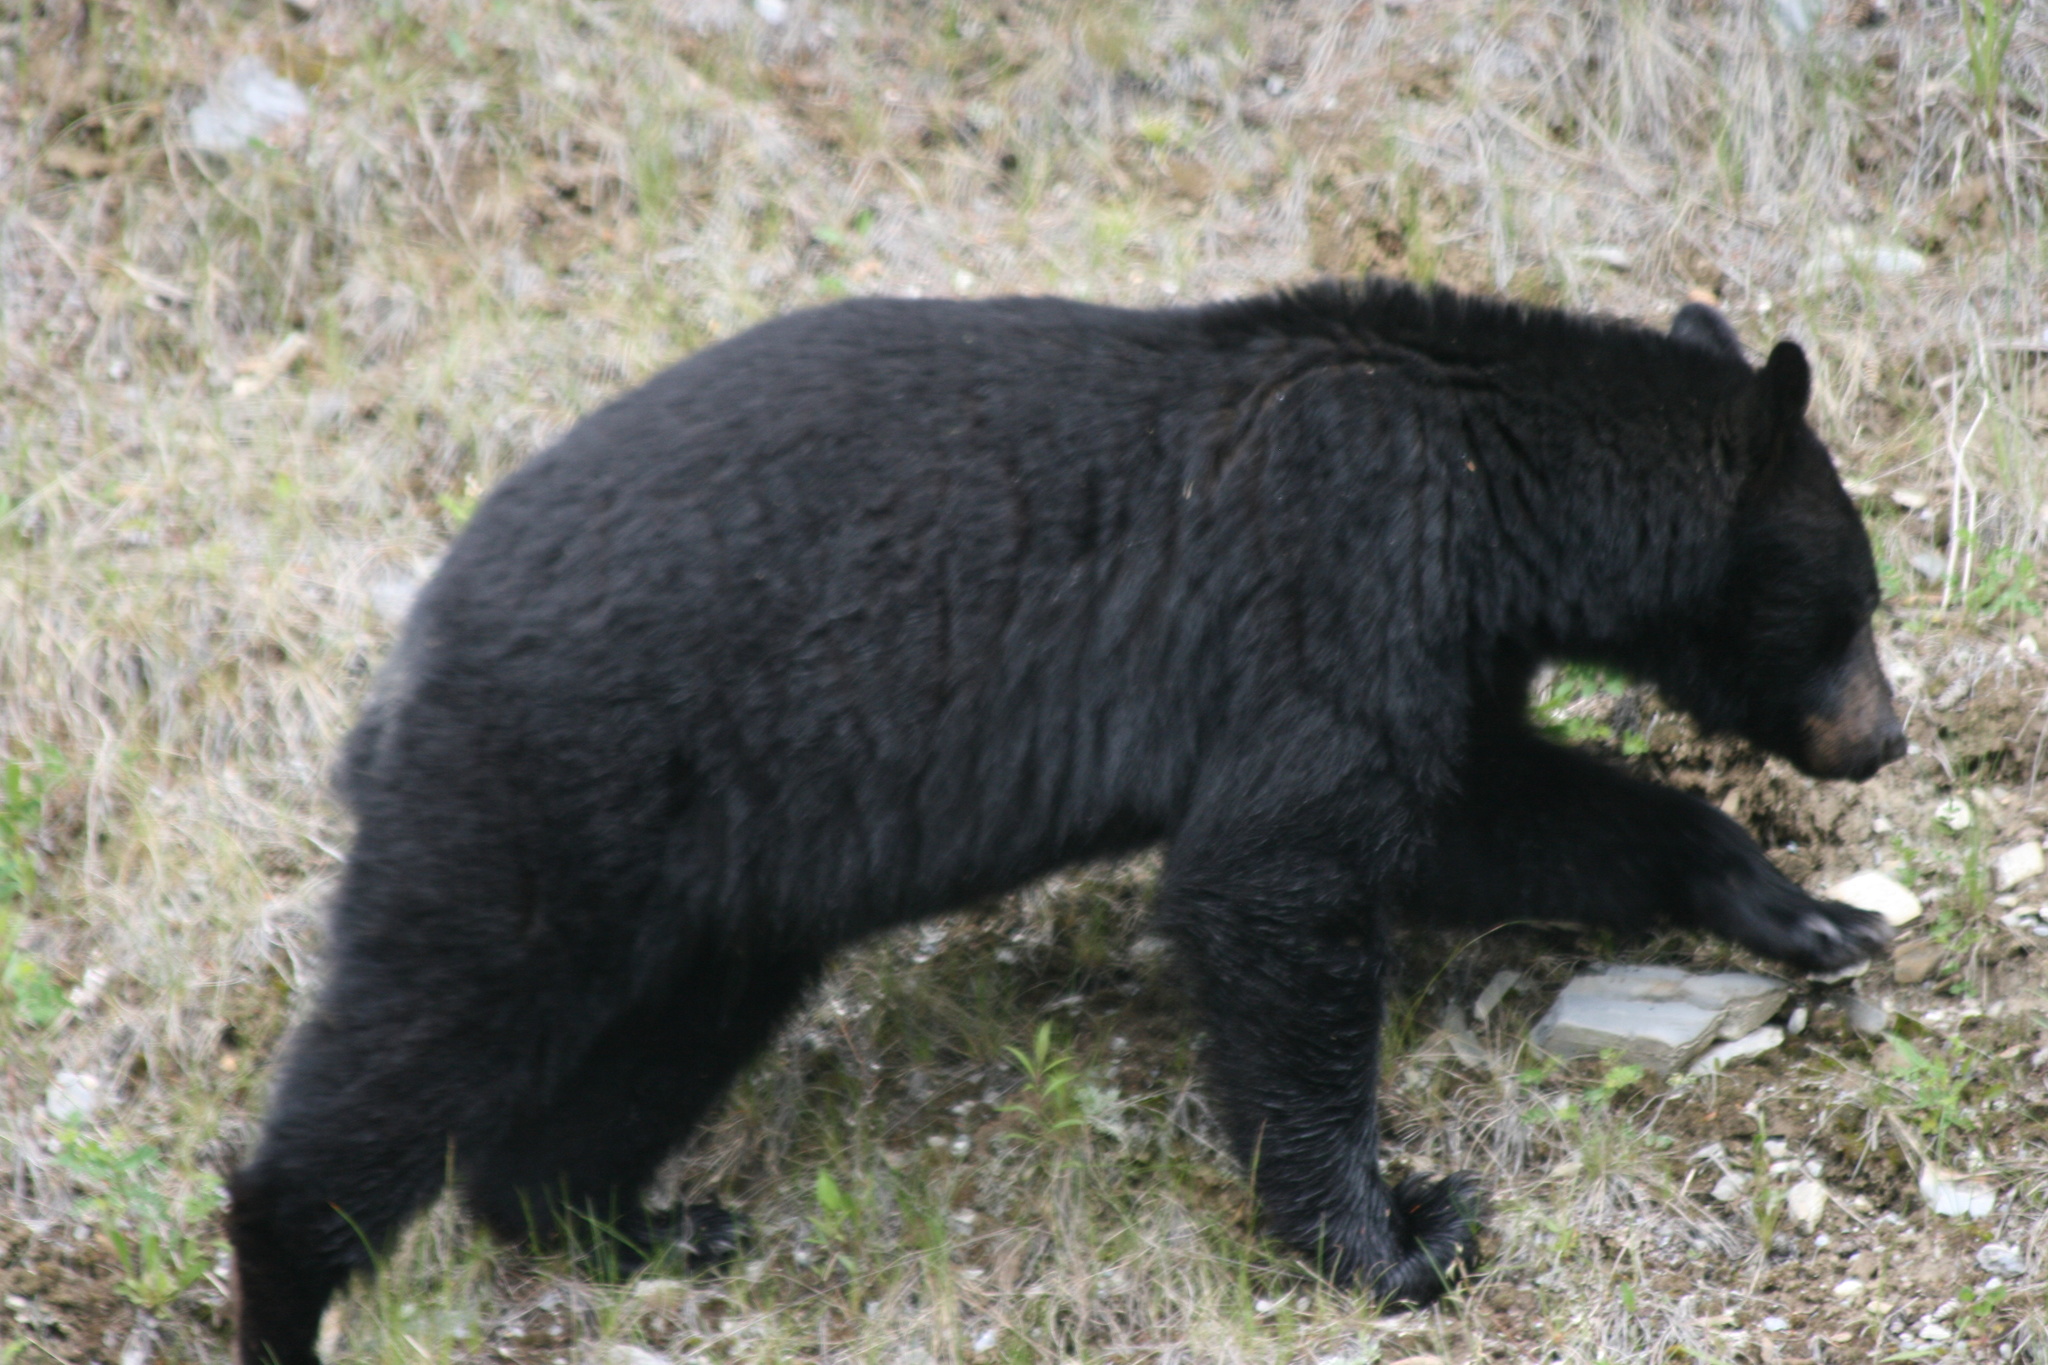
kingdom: Animalia
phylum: Chordata
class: Mammalia
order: Carnivora
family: Ursidae
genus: Ursus
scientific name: Ursus americanus
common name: American black bear
